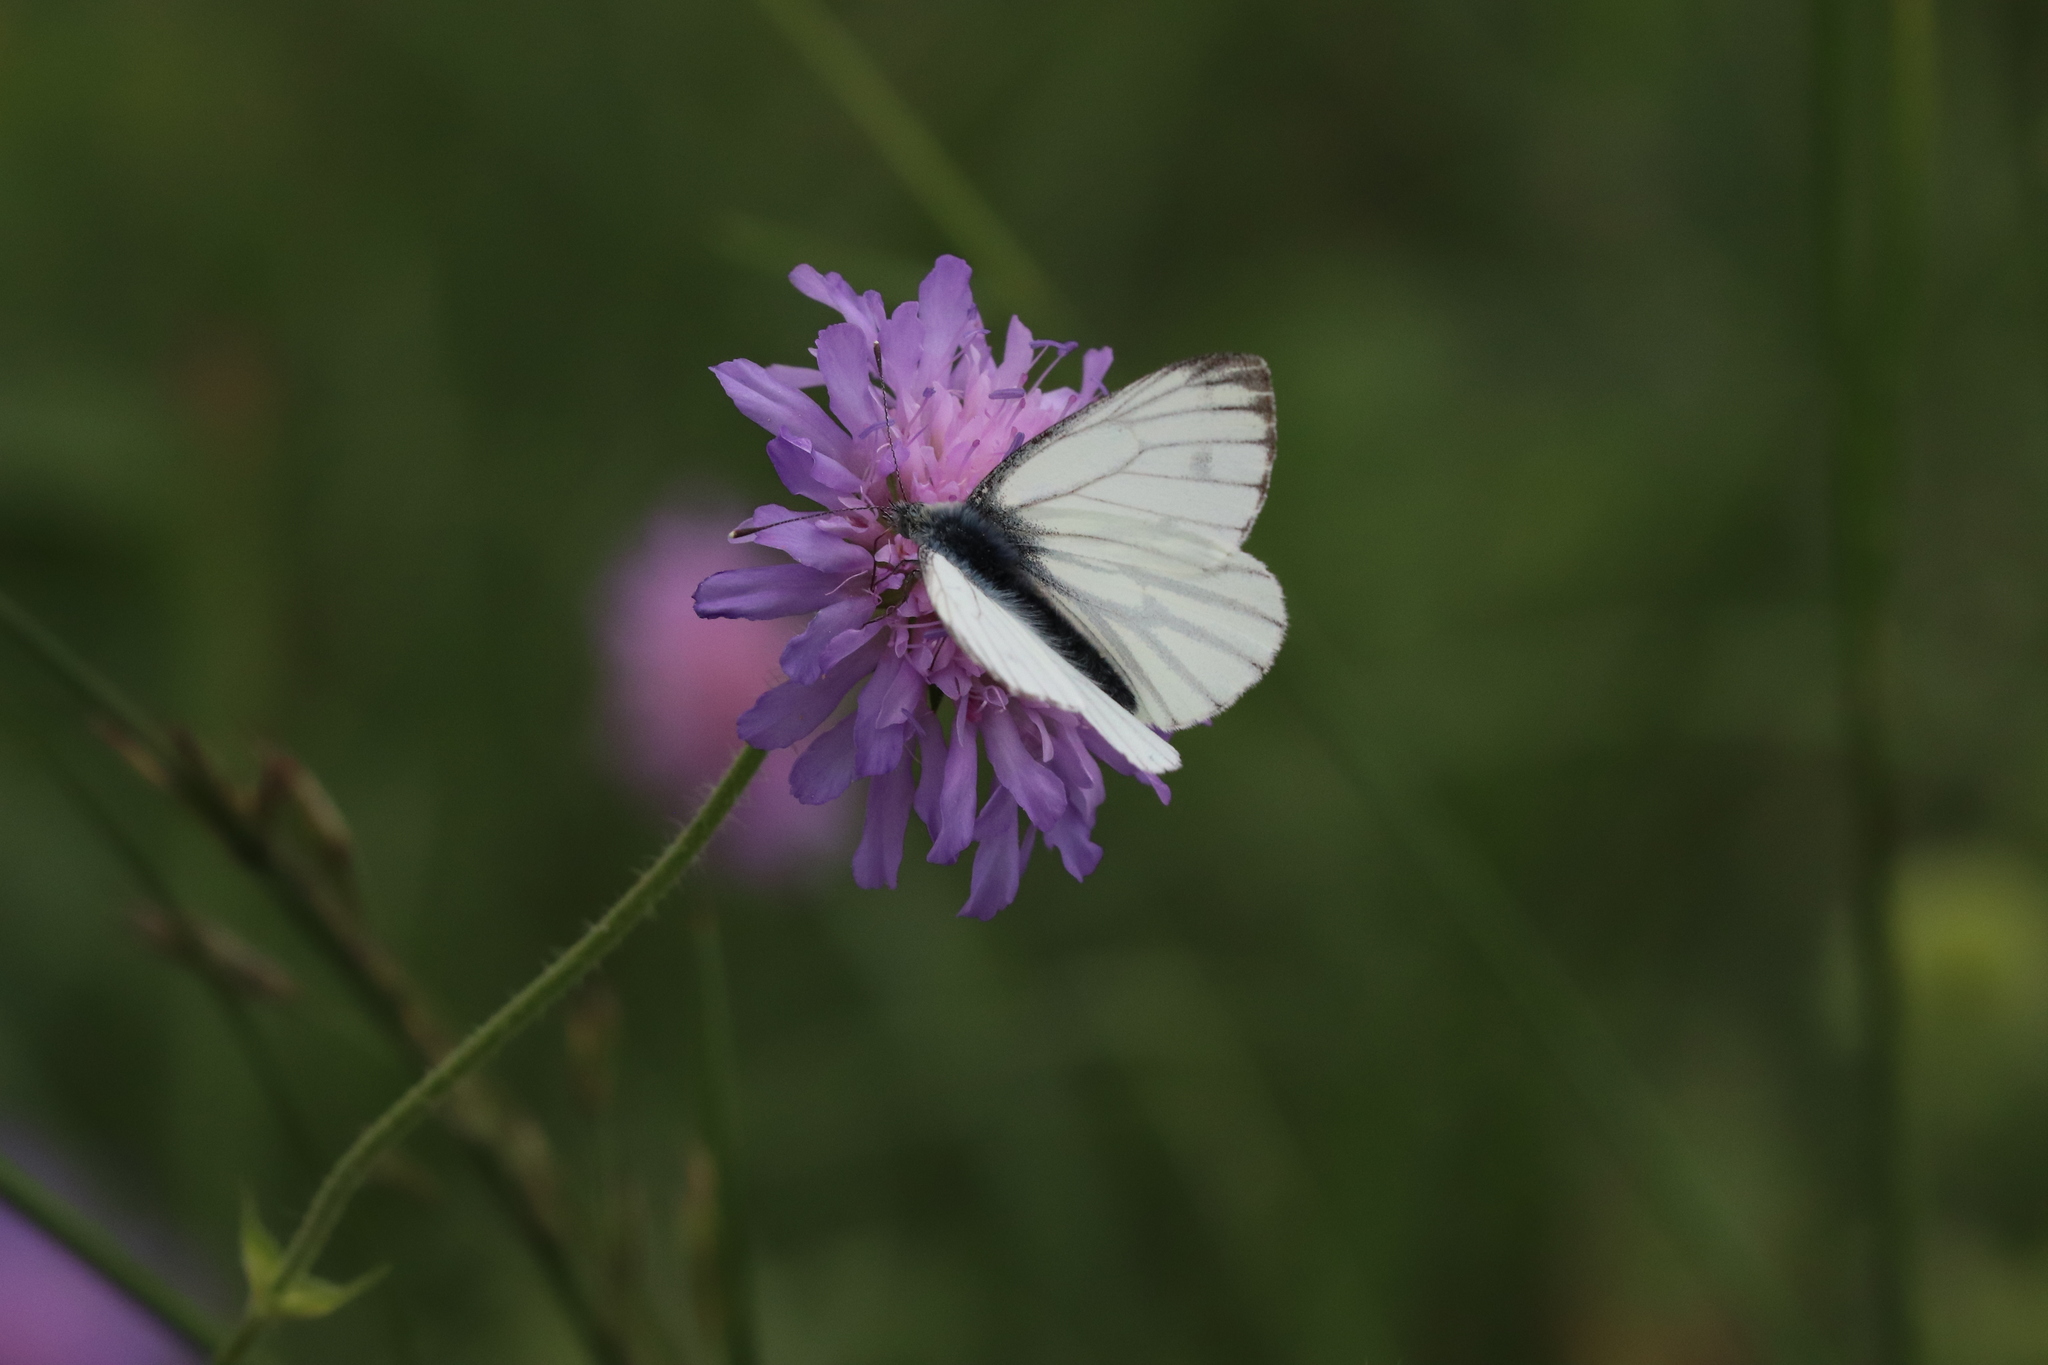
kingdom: Animalia
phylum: Arthropoda
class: Insecta
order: Lepidoptera
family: Pieridae
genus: Pieris
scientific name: Pieris napi
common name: Green-veined white
